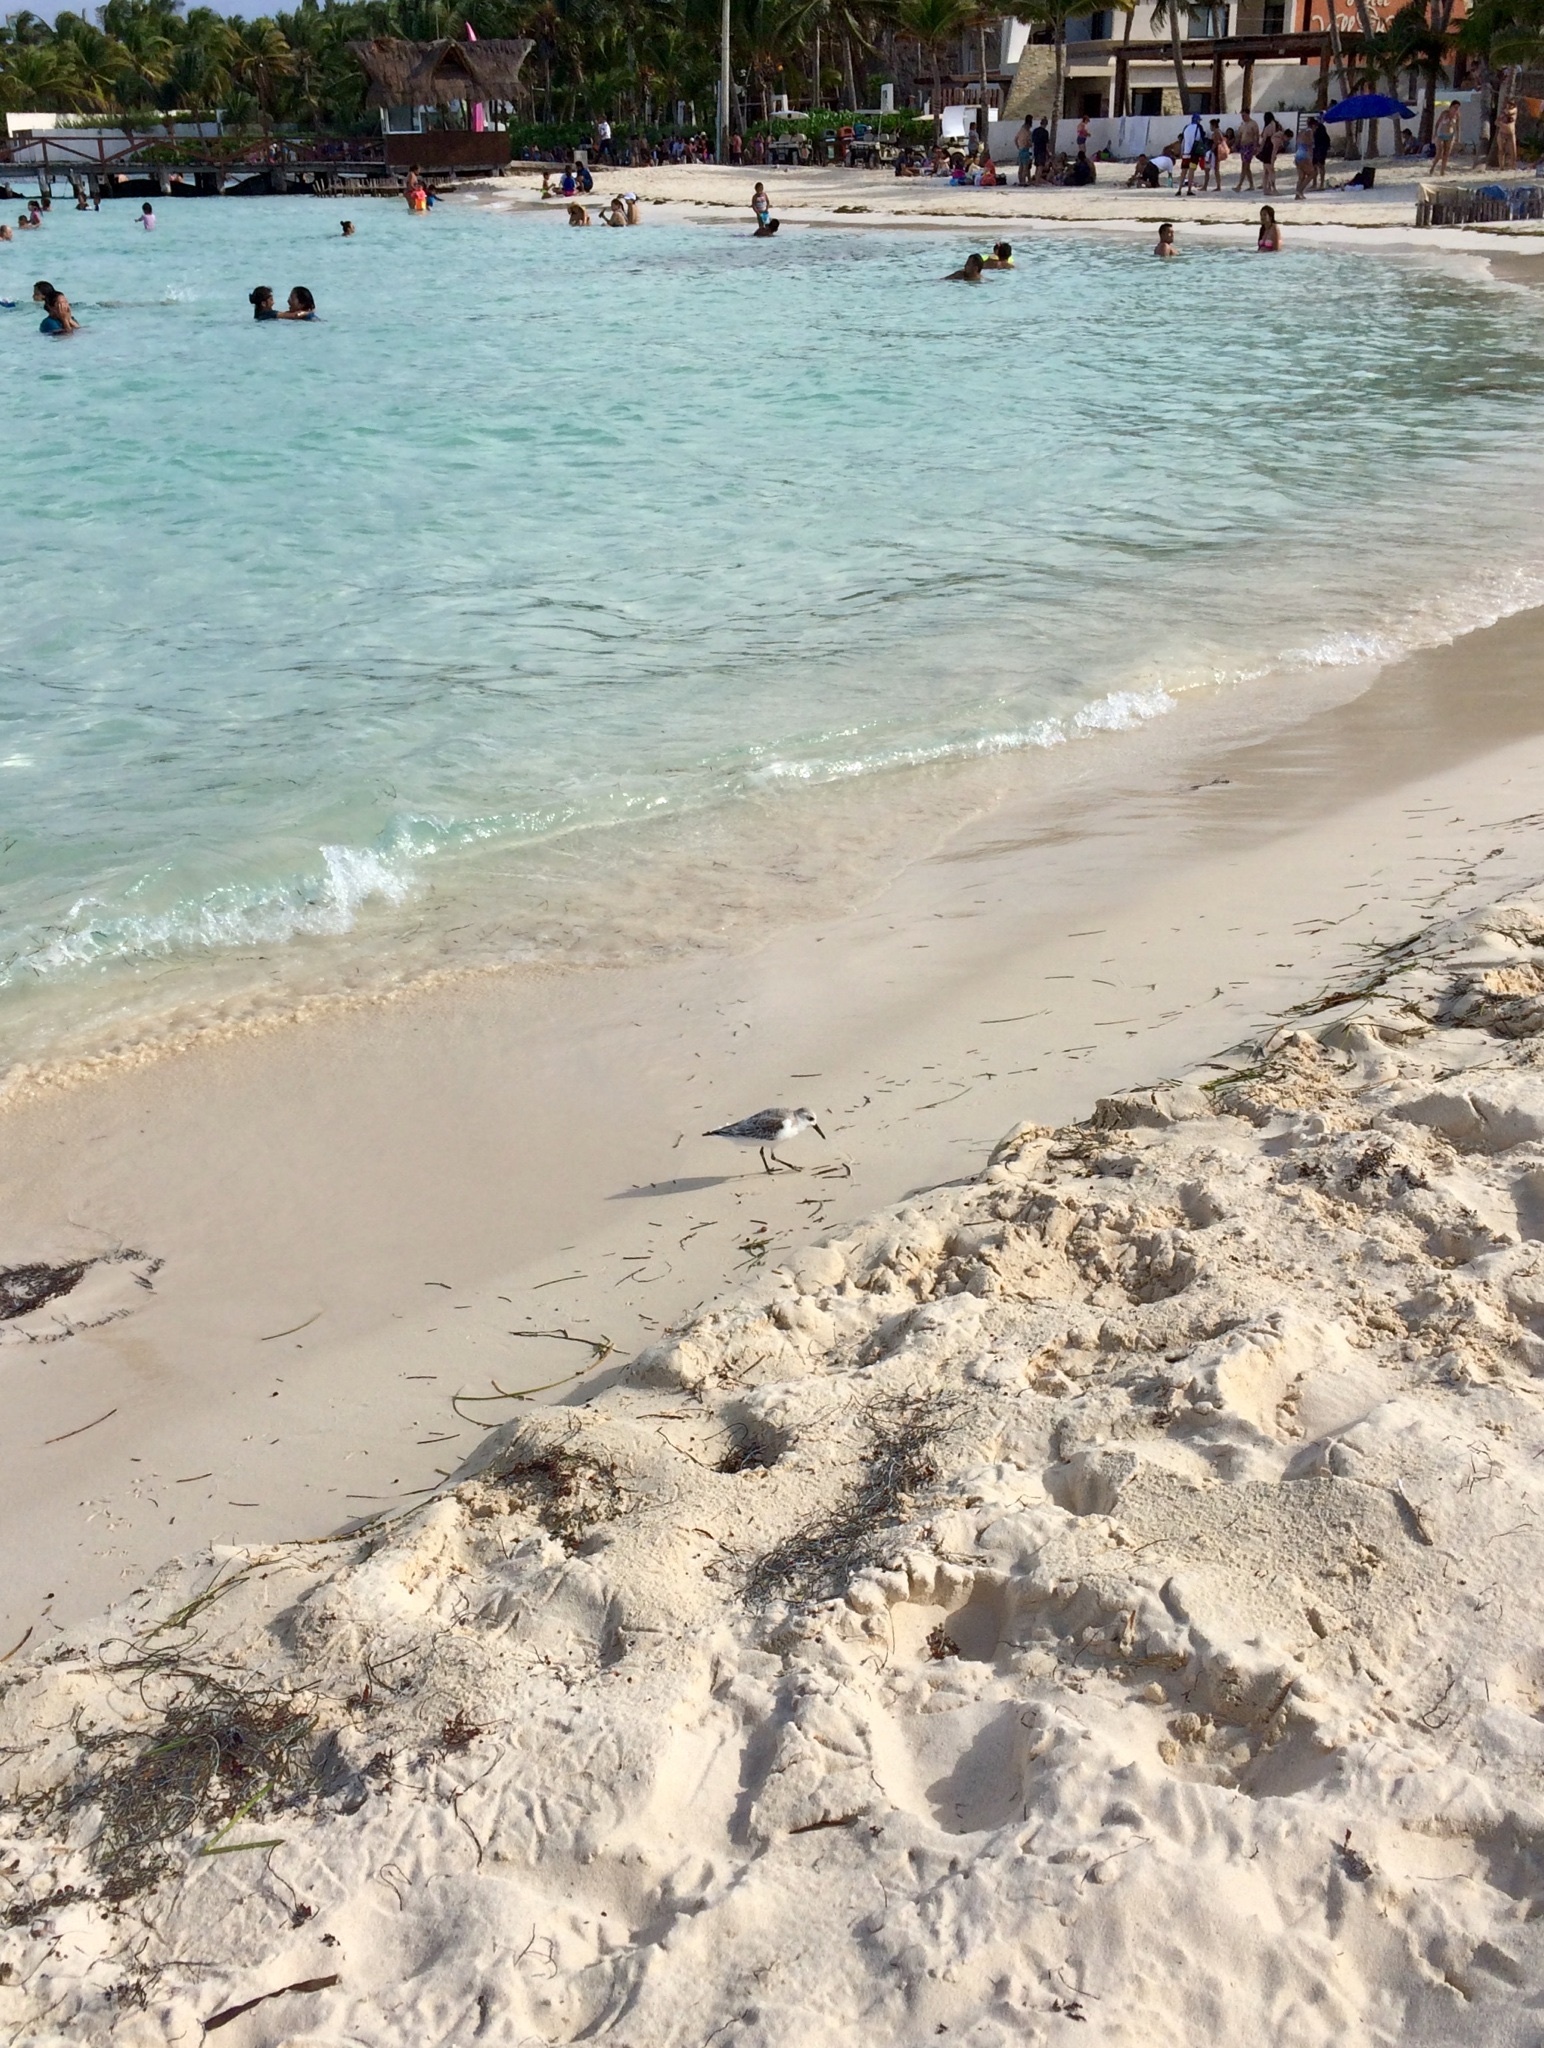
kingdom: Animalia
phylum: Chordata
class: Aves
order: Charadriiformes
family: Scolopacidae
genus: Calidris
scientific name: Calidris alba
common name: Sanderling
